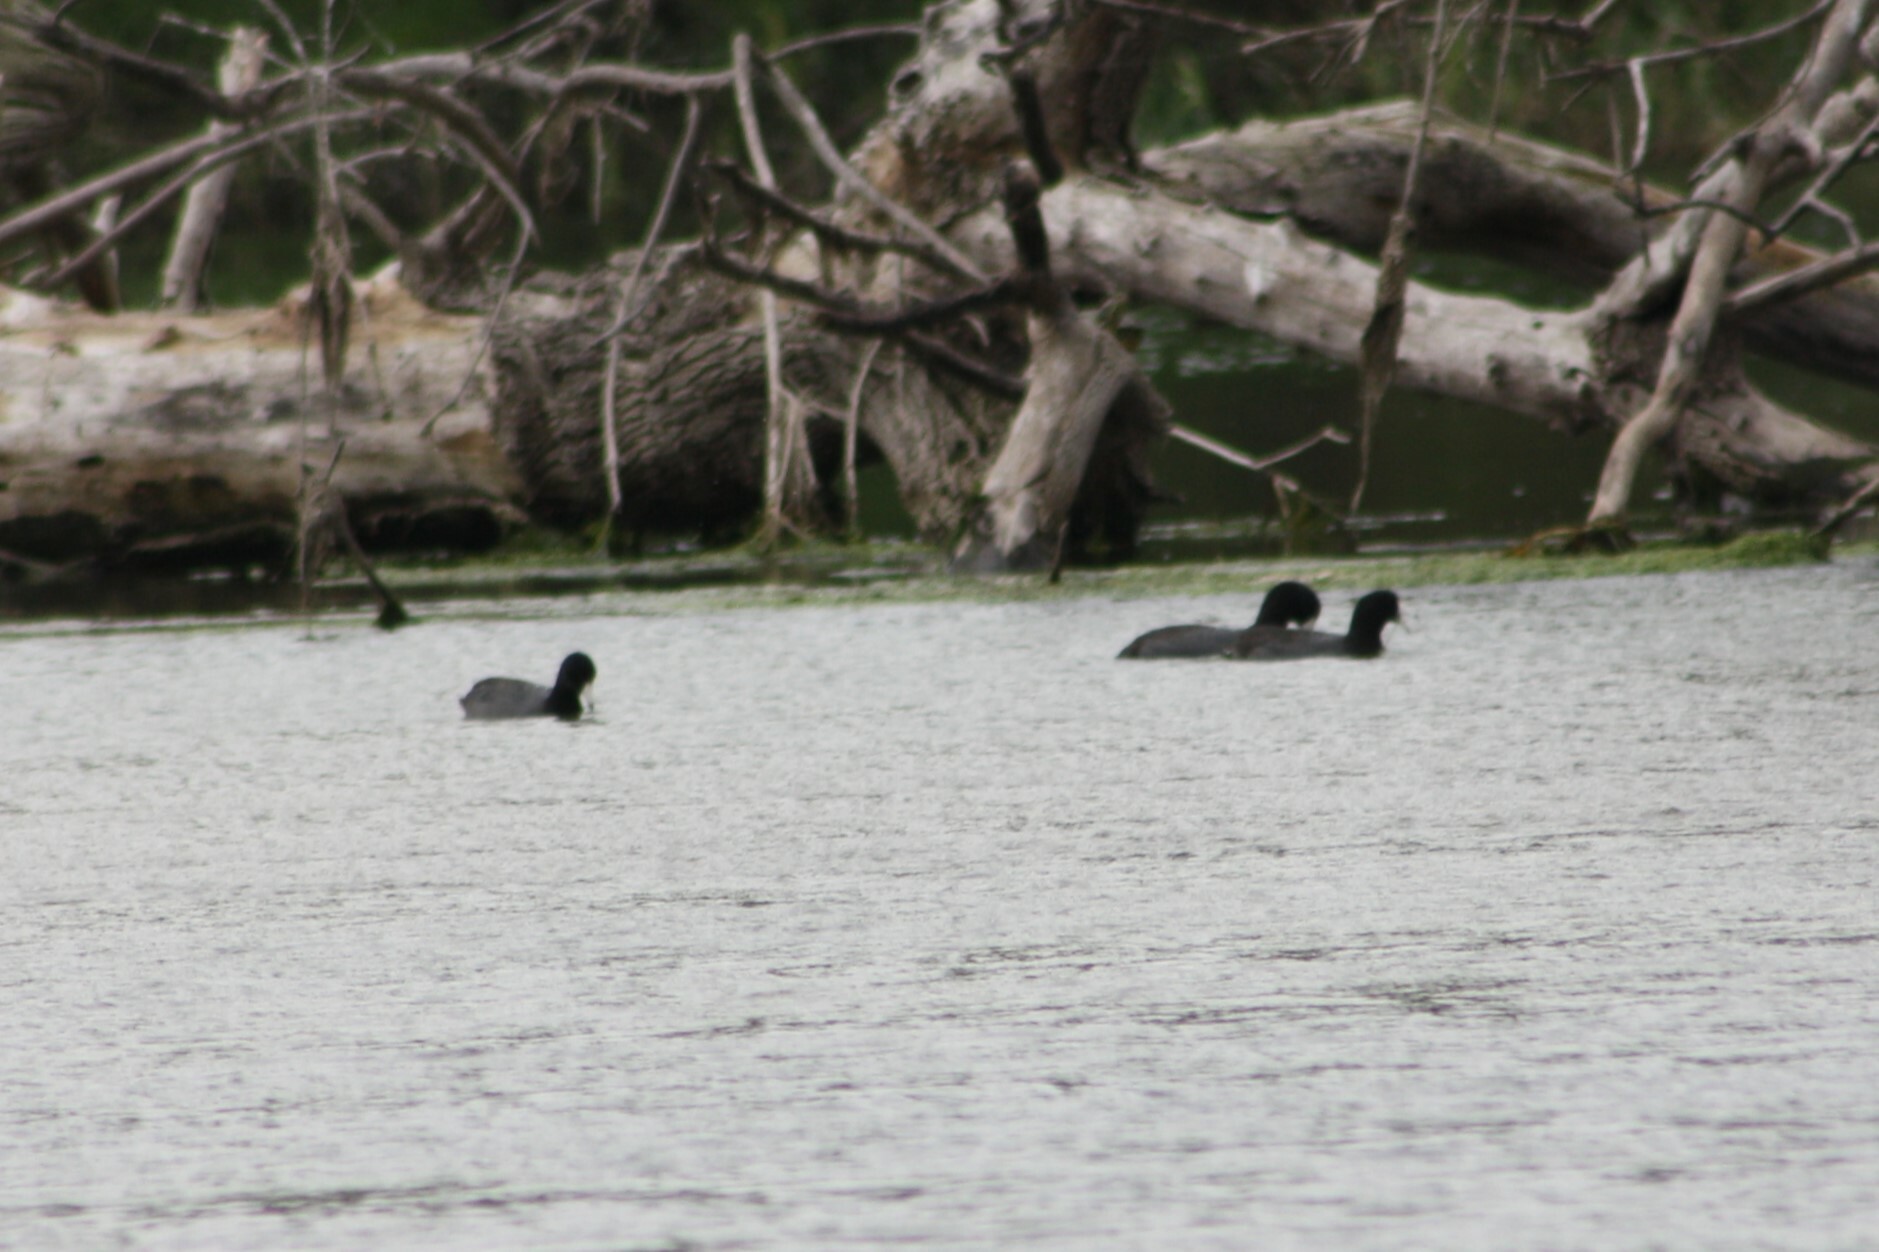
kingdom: Animalia
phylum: Chordata
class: Aves
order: Gruiformes
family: Rallidae
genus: Fulica
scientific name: Fulica americana
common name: American coot
